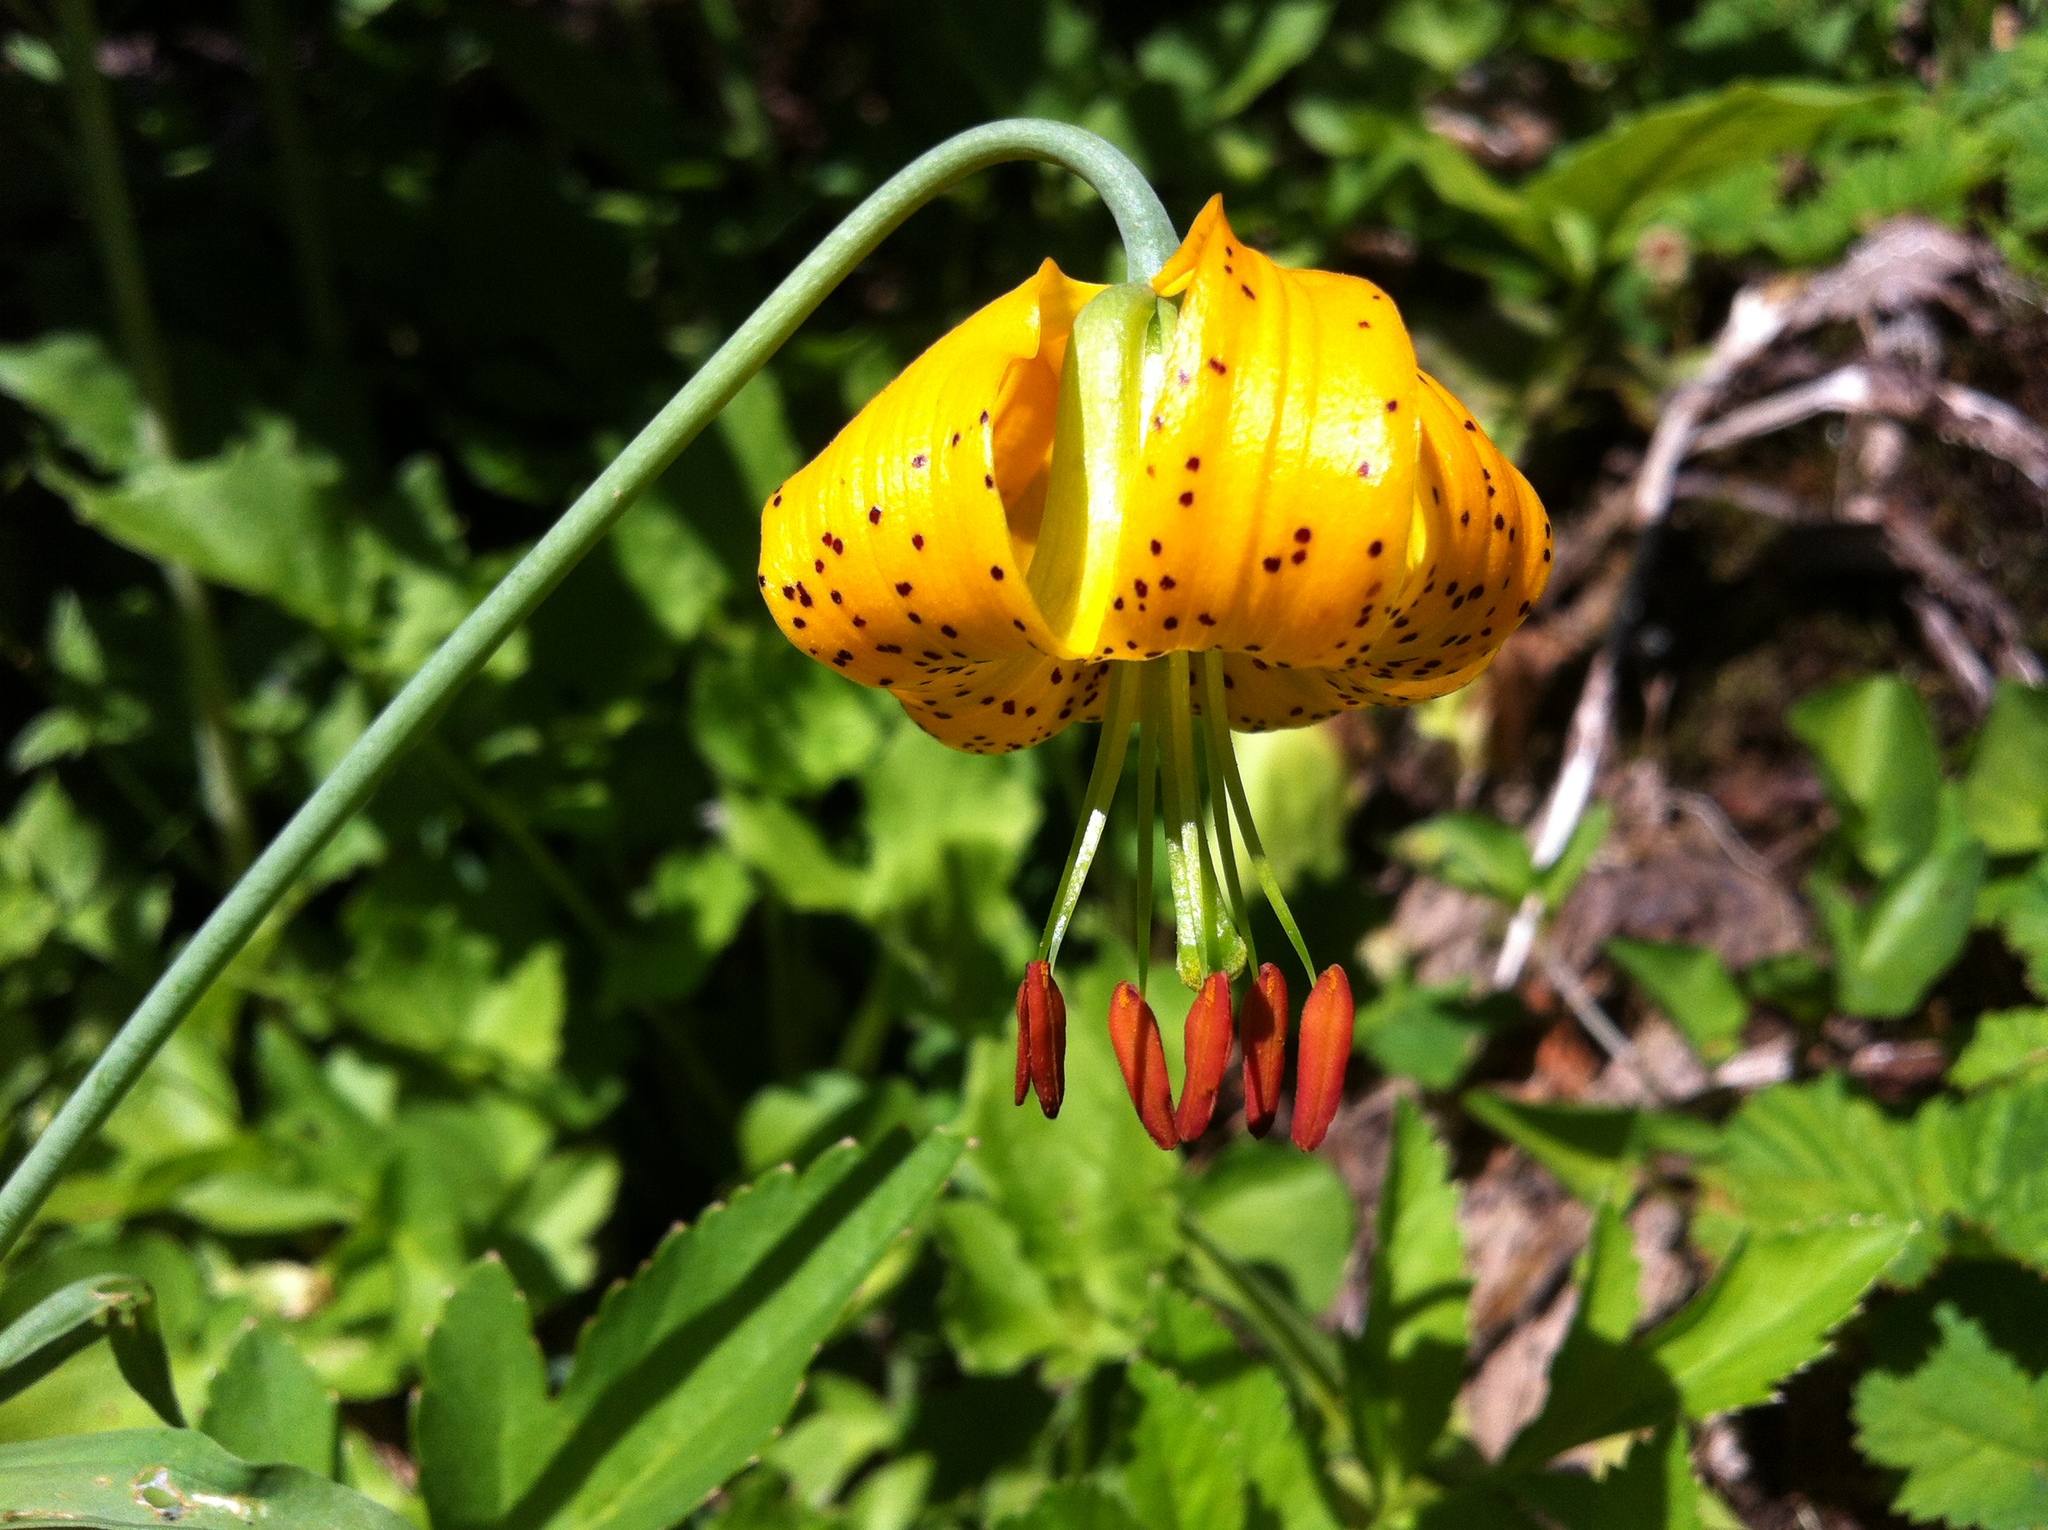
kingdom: Plantae
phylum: Tracheophyta
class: Liliopsida
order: Liliales
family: Liliaceae
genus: Lilium
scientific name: Lilium columbianum
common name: Columbia lily
